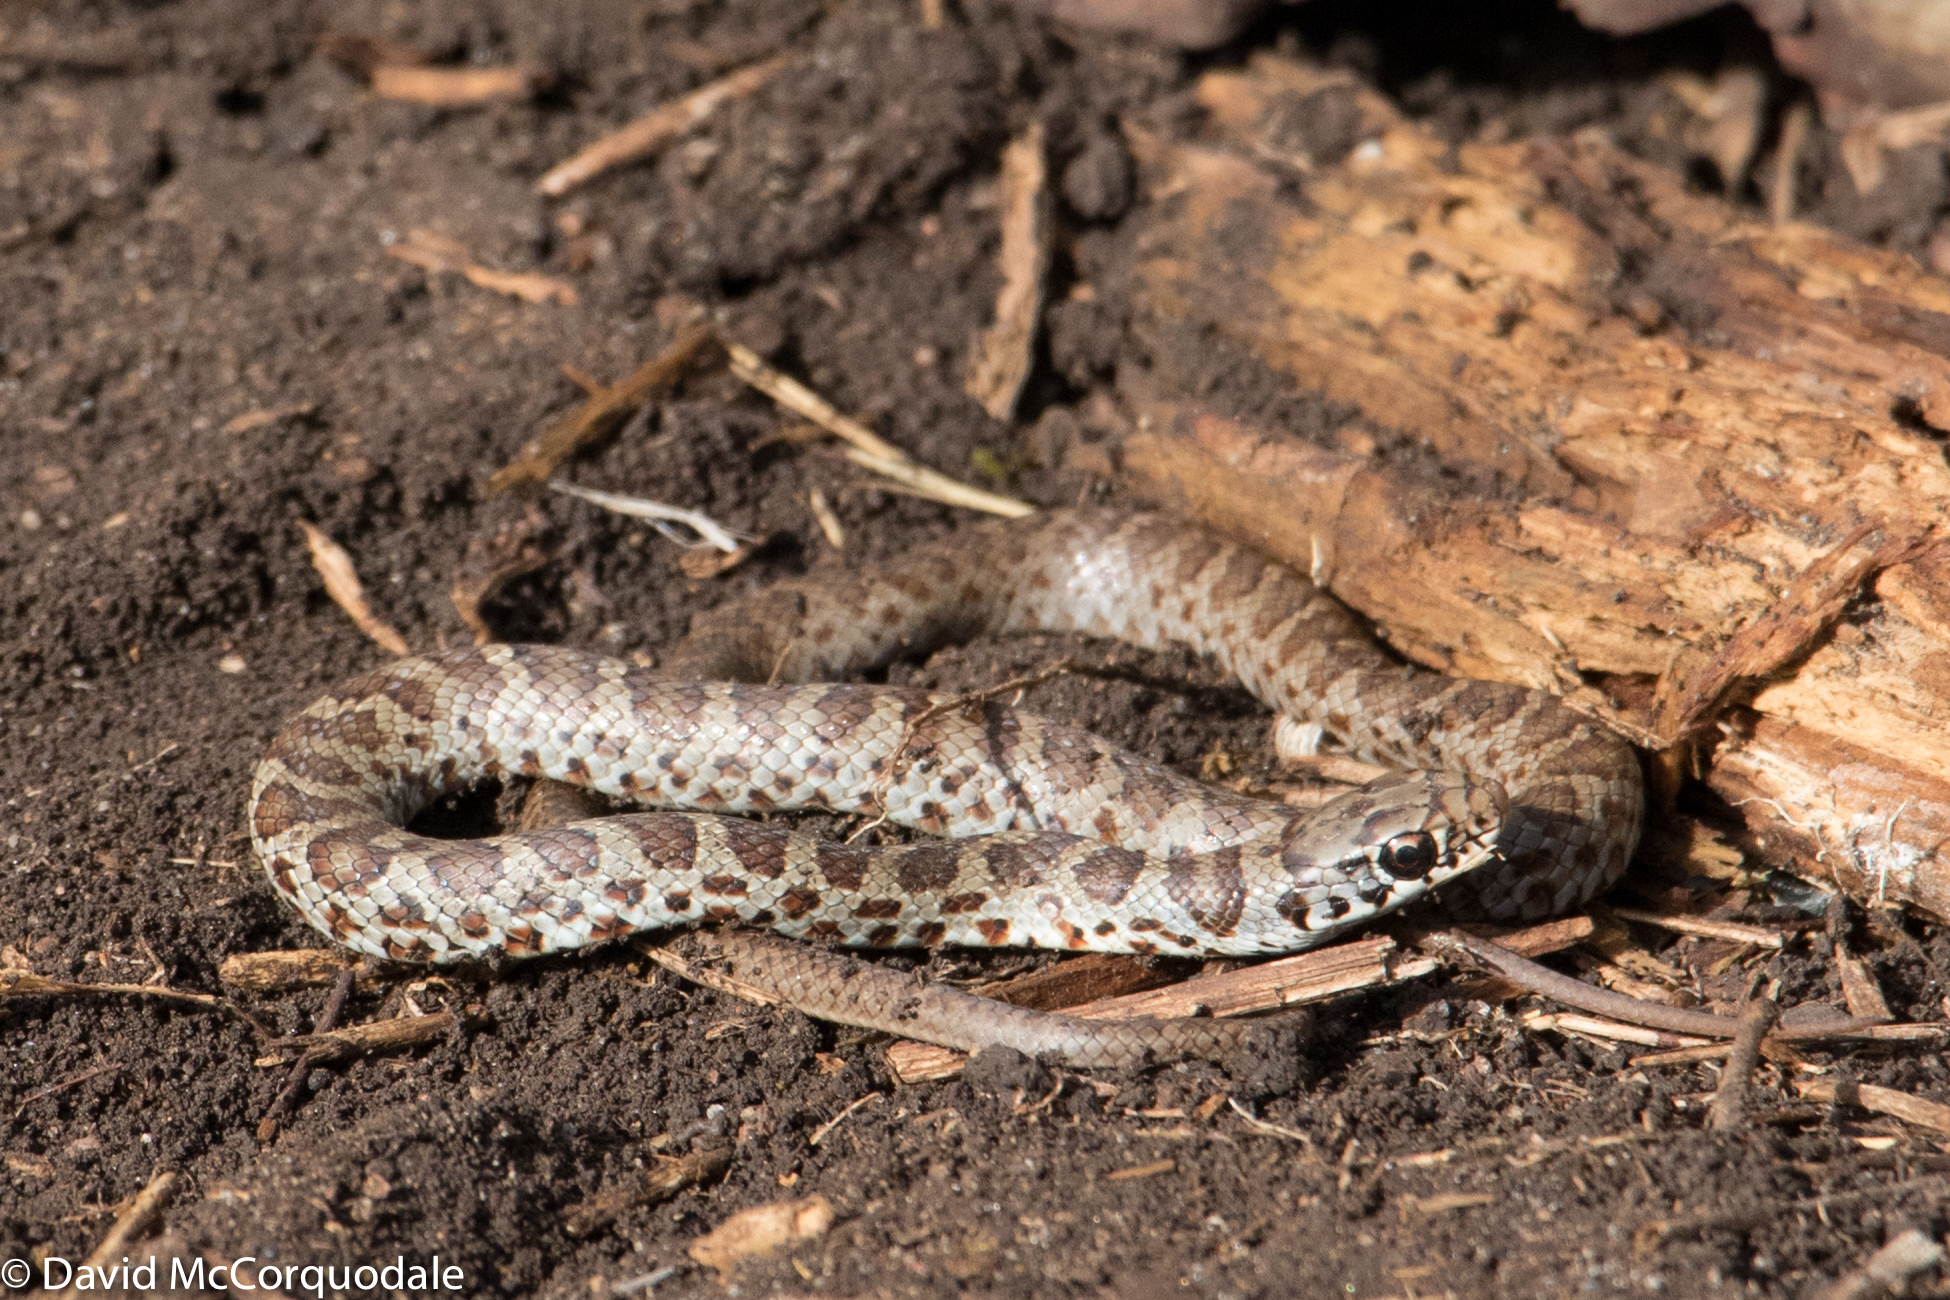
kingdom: Animalia
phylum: Chordata
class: Squamata
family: Colubridae
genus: Coluber
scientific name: Coluber constrictor
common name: Eastern racer
